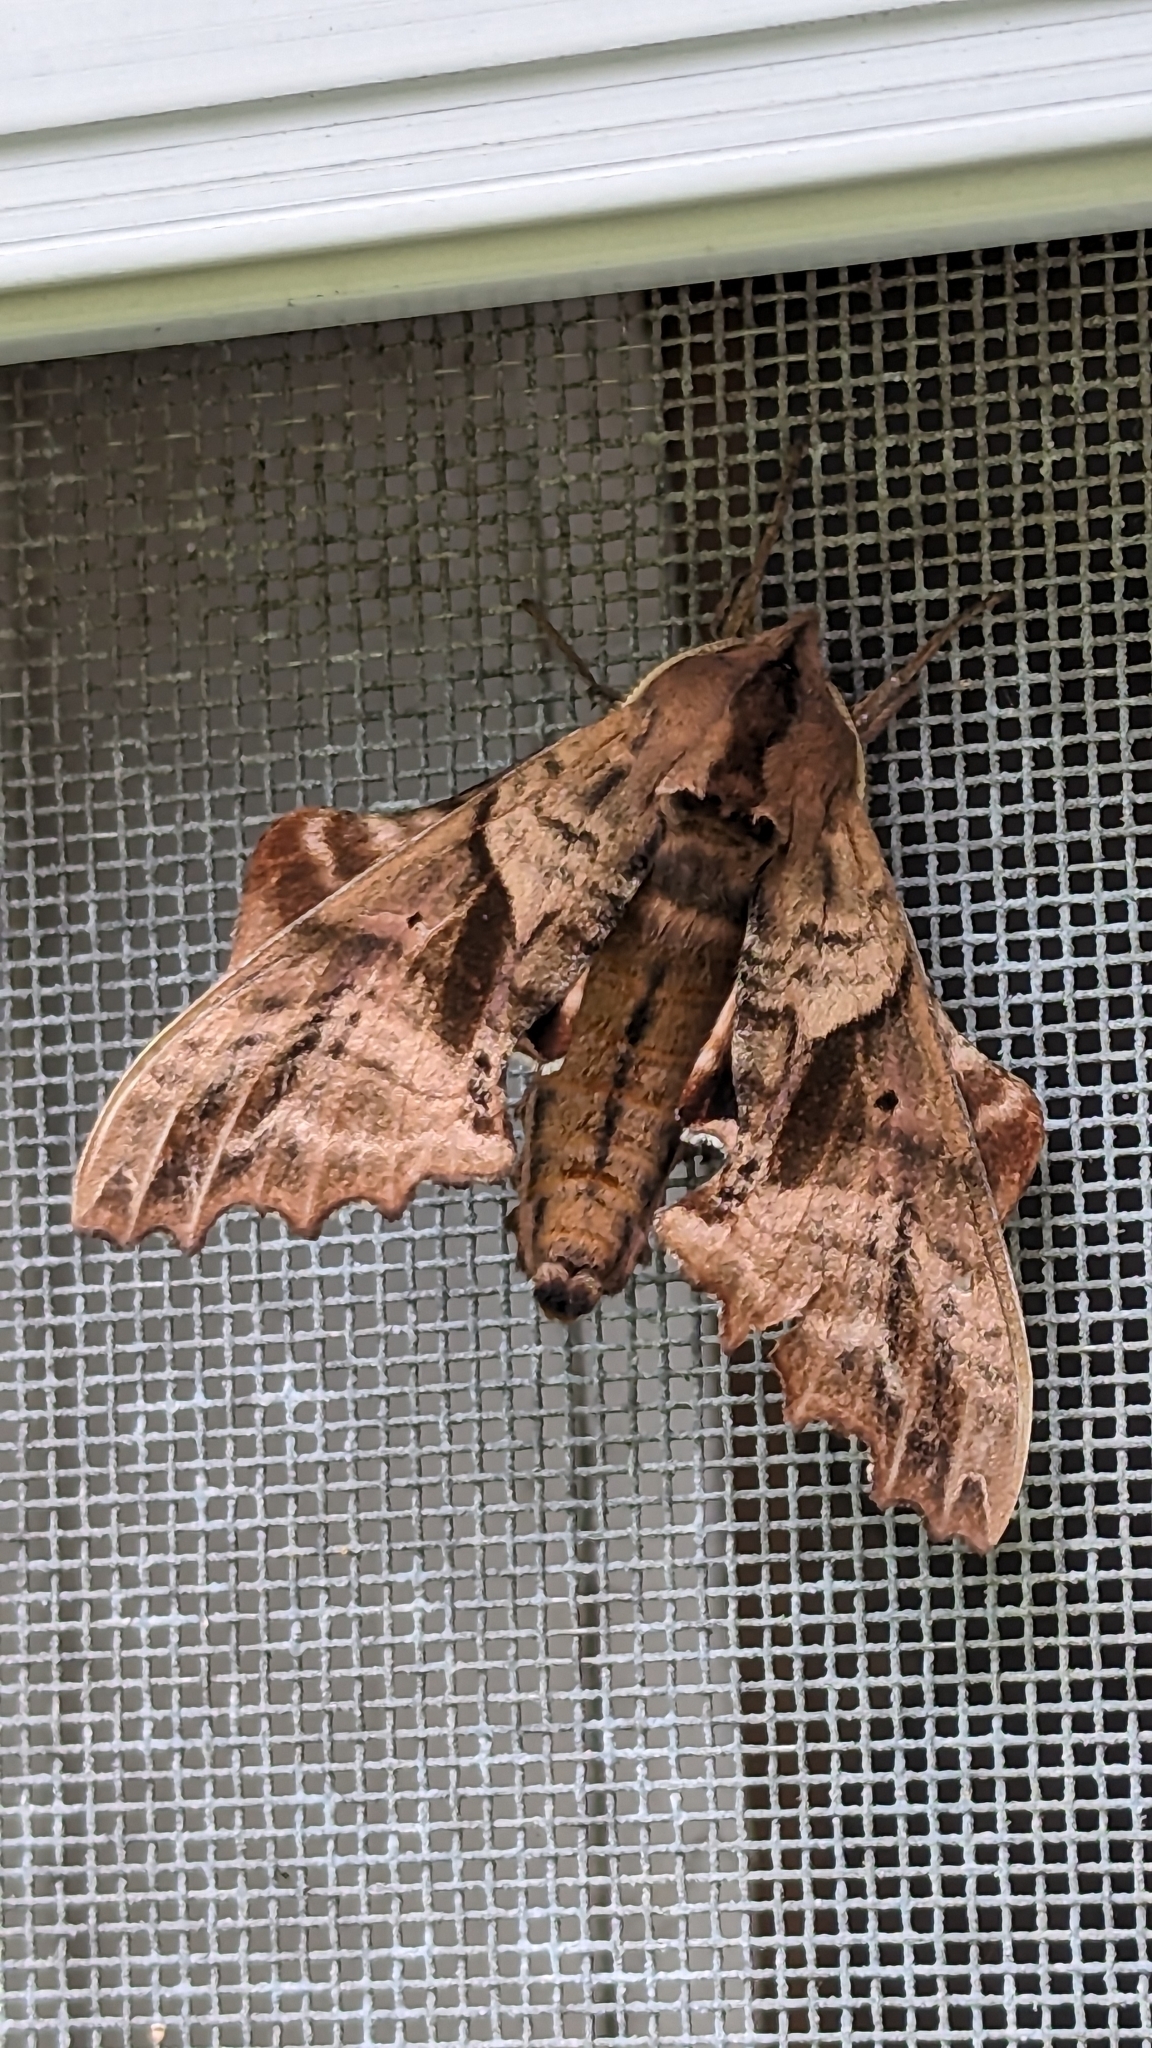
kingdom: Animalia
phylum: Arthropoda
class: Insecta
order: Lepidoptera
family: Sphingidae
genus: Paonias
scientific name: Paonias excaecata
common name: Blind-eyed sphinx
